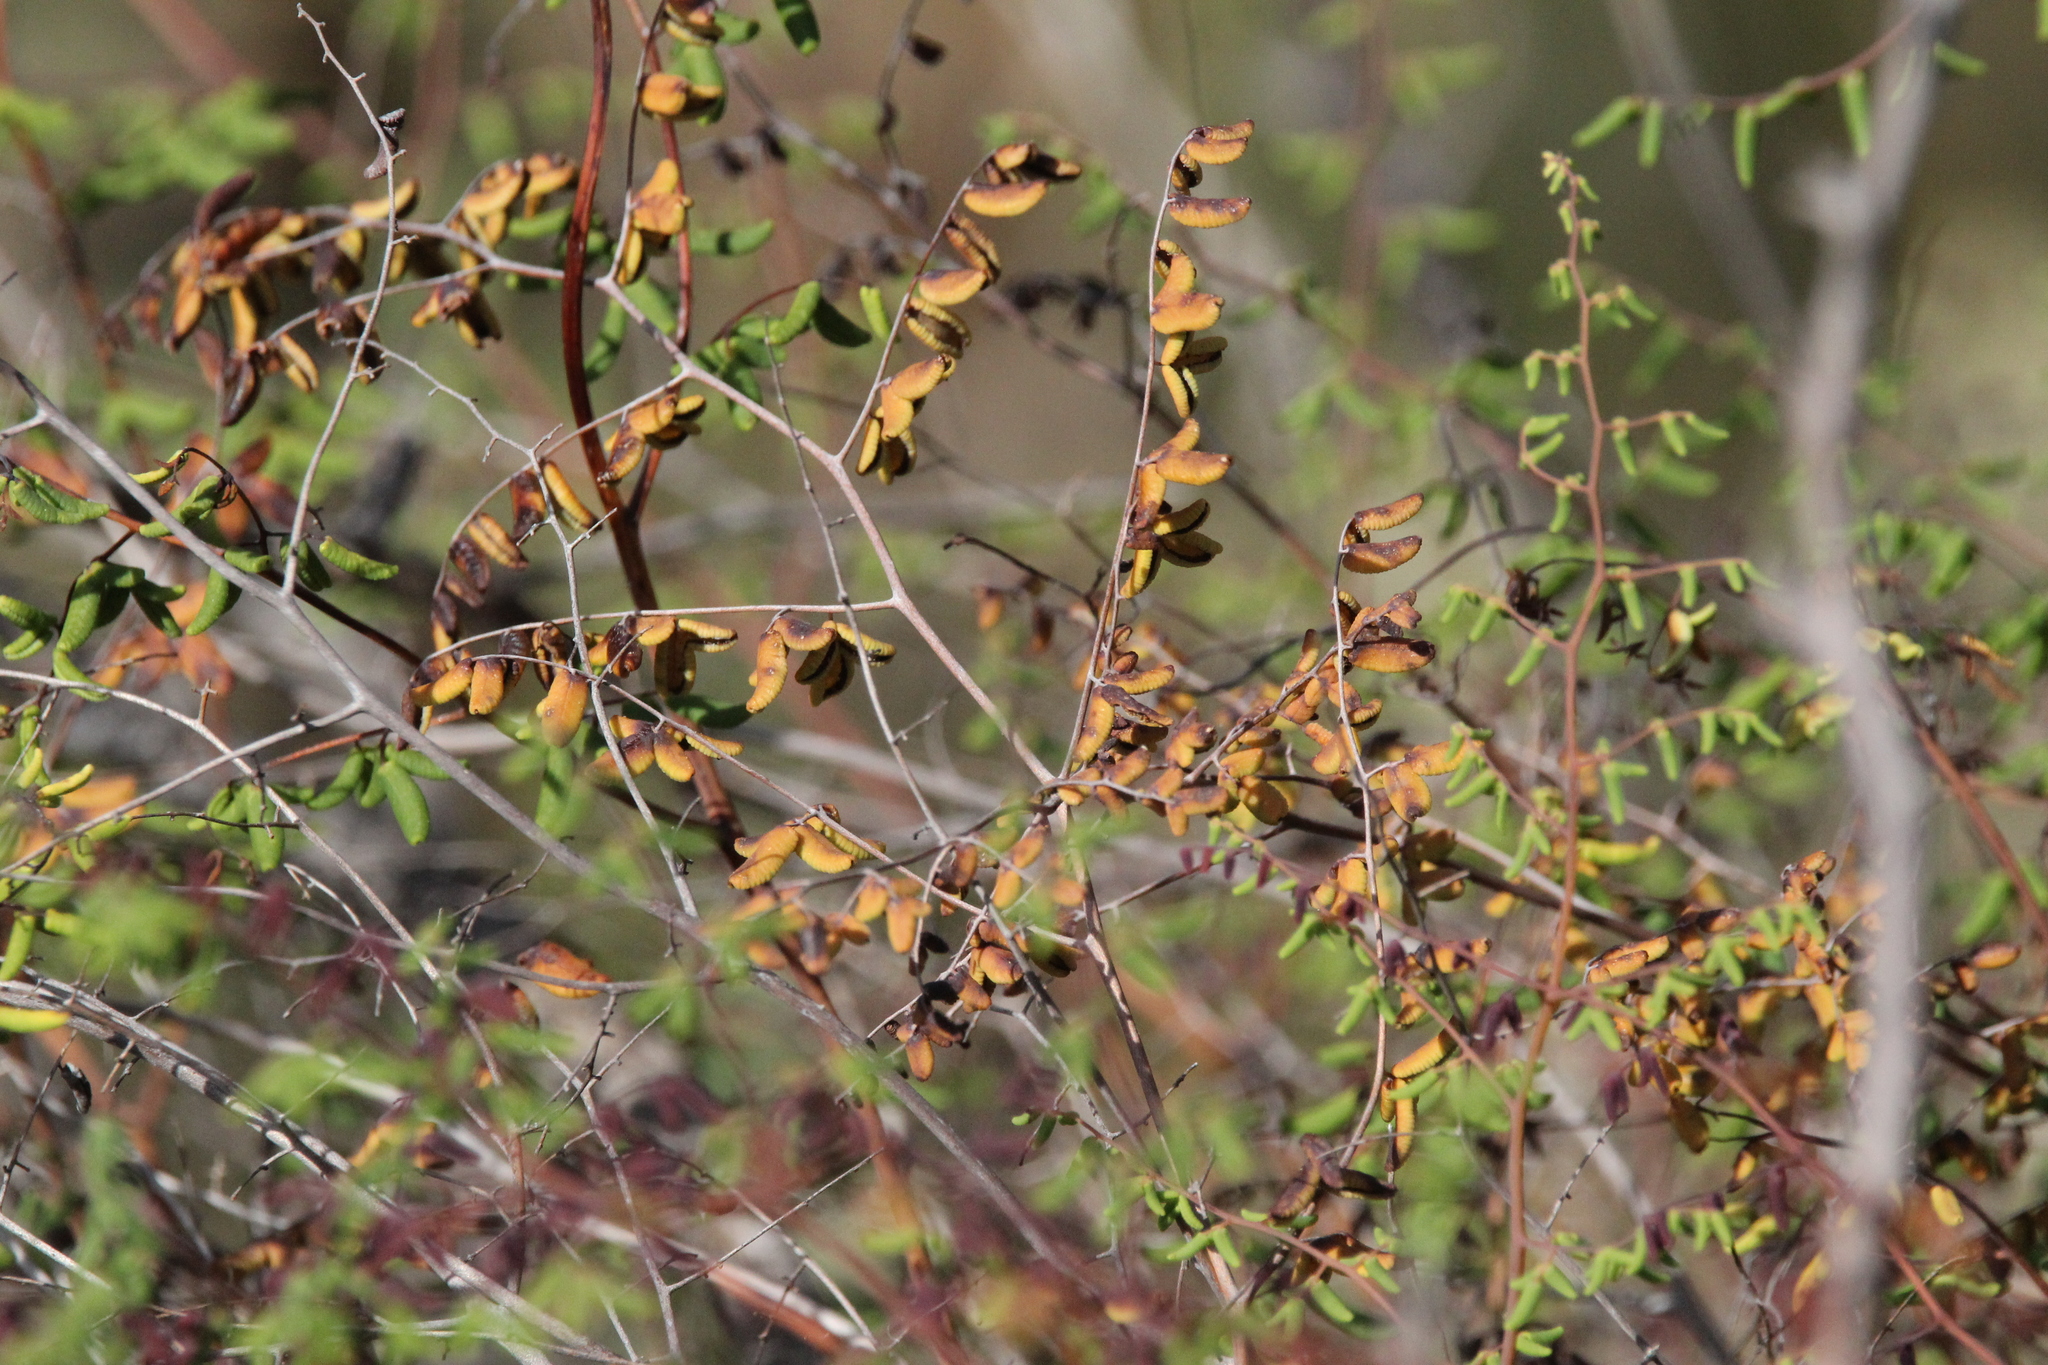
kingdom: Plantae
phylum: Tracheophyta
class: Polypodiopsida
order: Polypodiales
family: Pteridaceae
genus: Pellaea
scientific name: Pellaea andromedifolia
